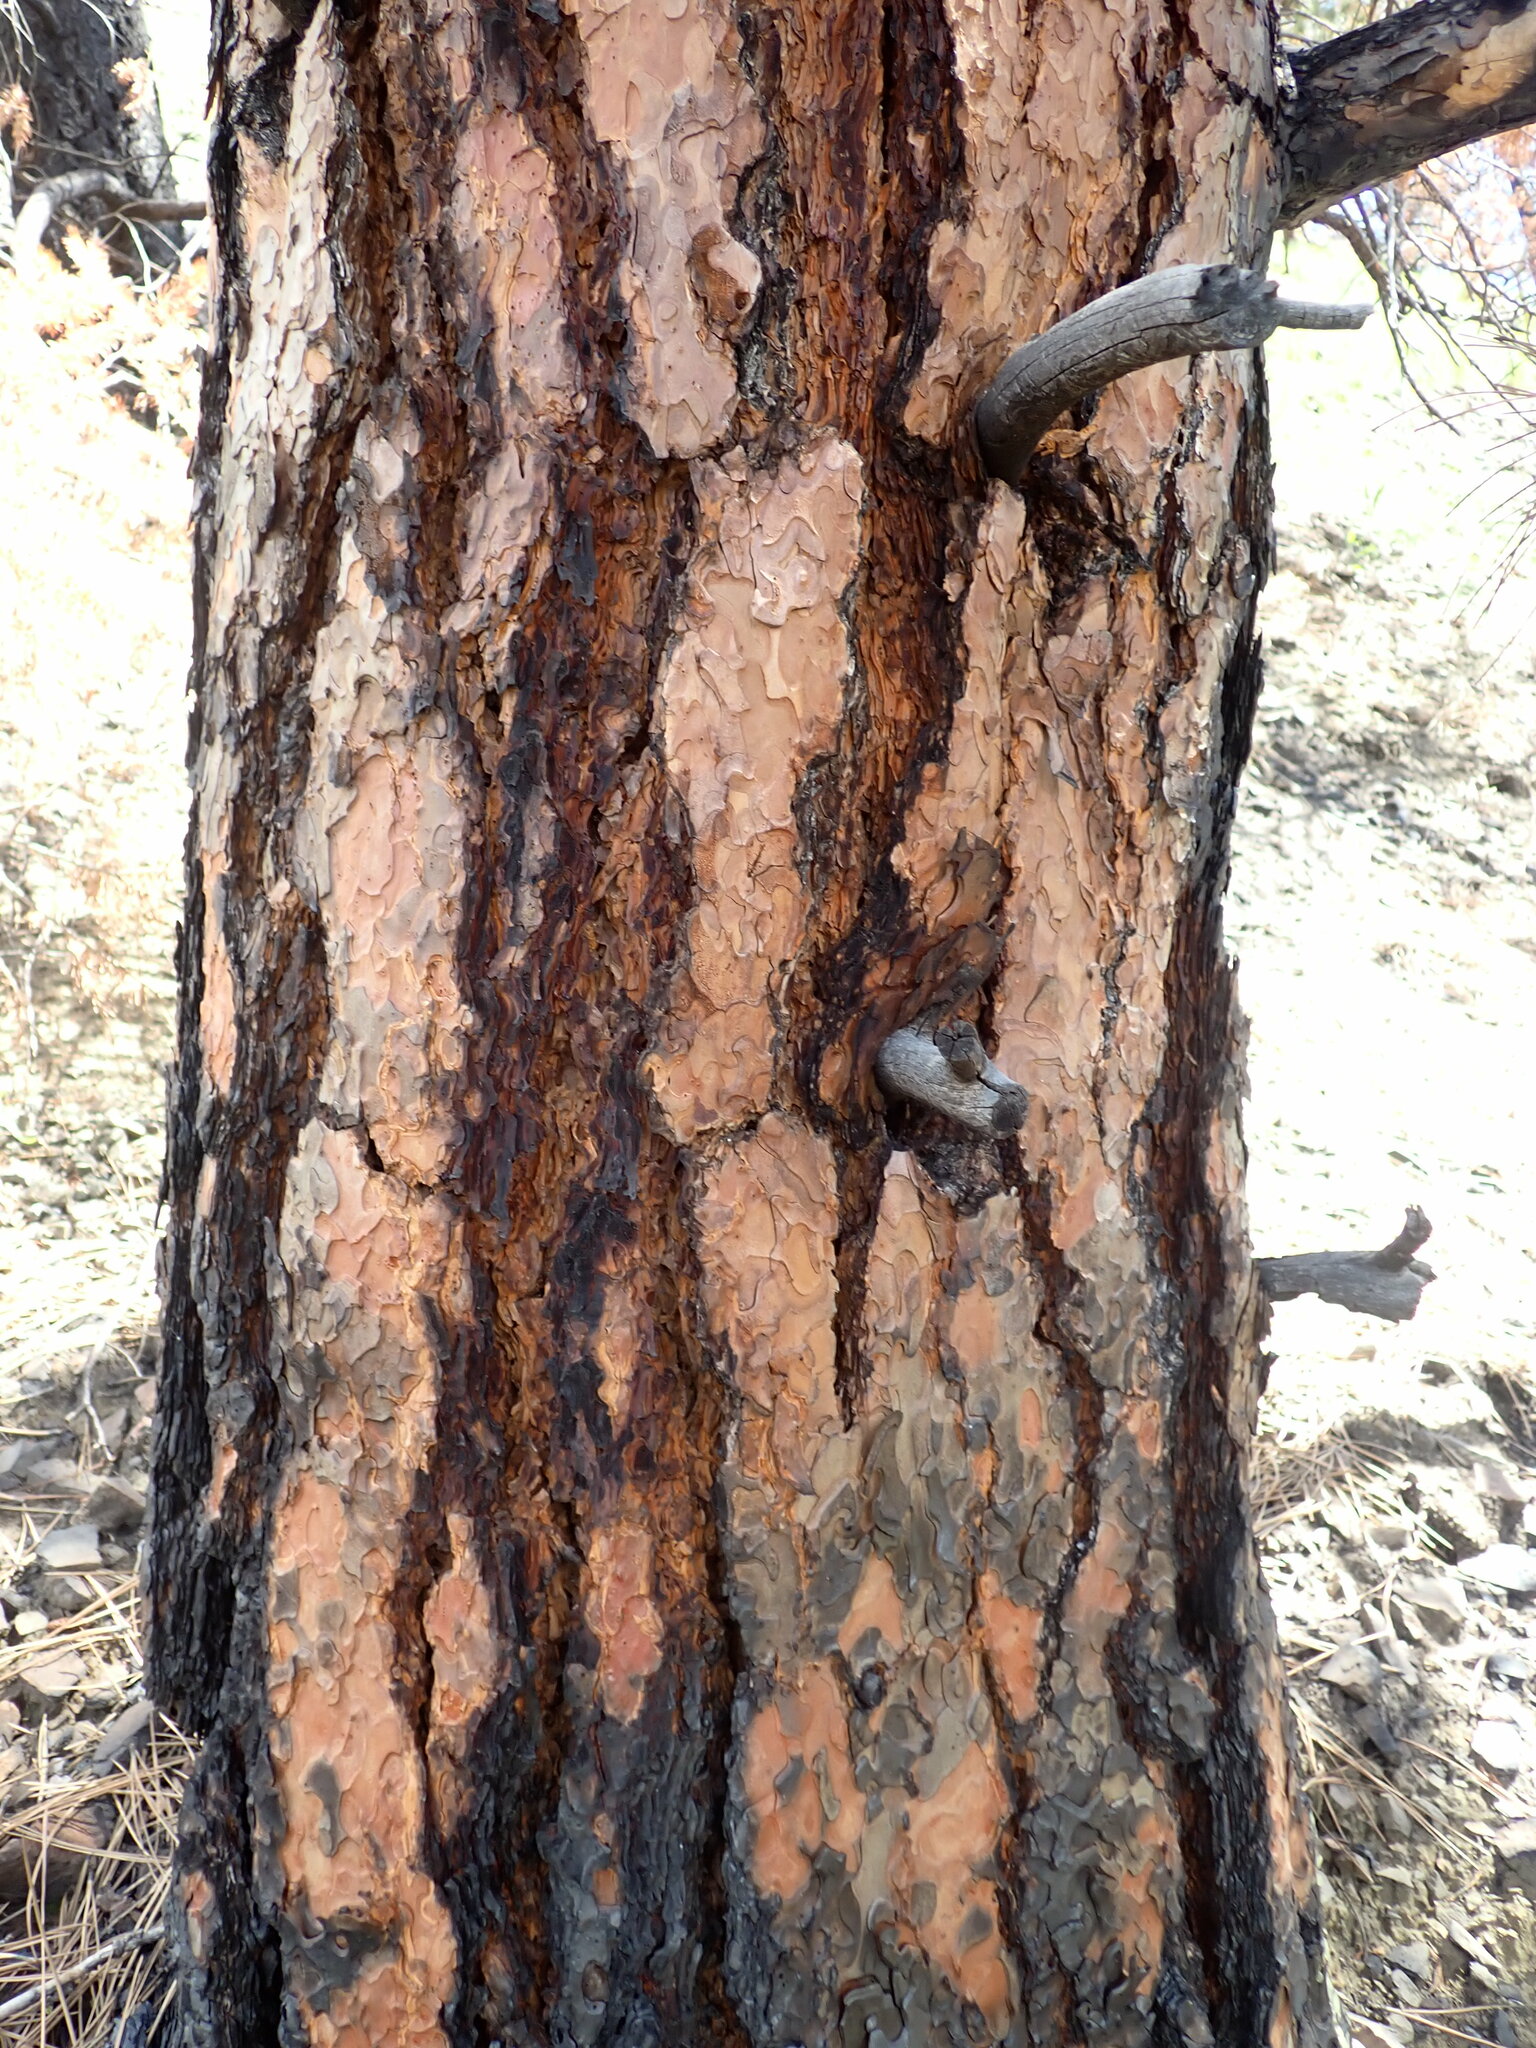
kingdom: Plantae
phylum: Tracheophyta
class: Pinopsida
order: Pinales
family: Pinaceae
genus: Pinus
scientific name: Pinus ponderosa
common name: Western yellow-pine
